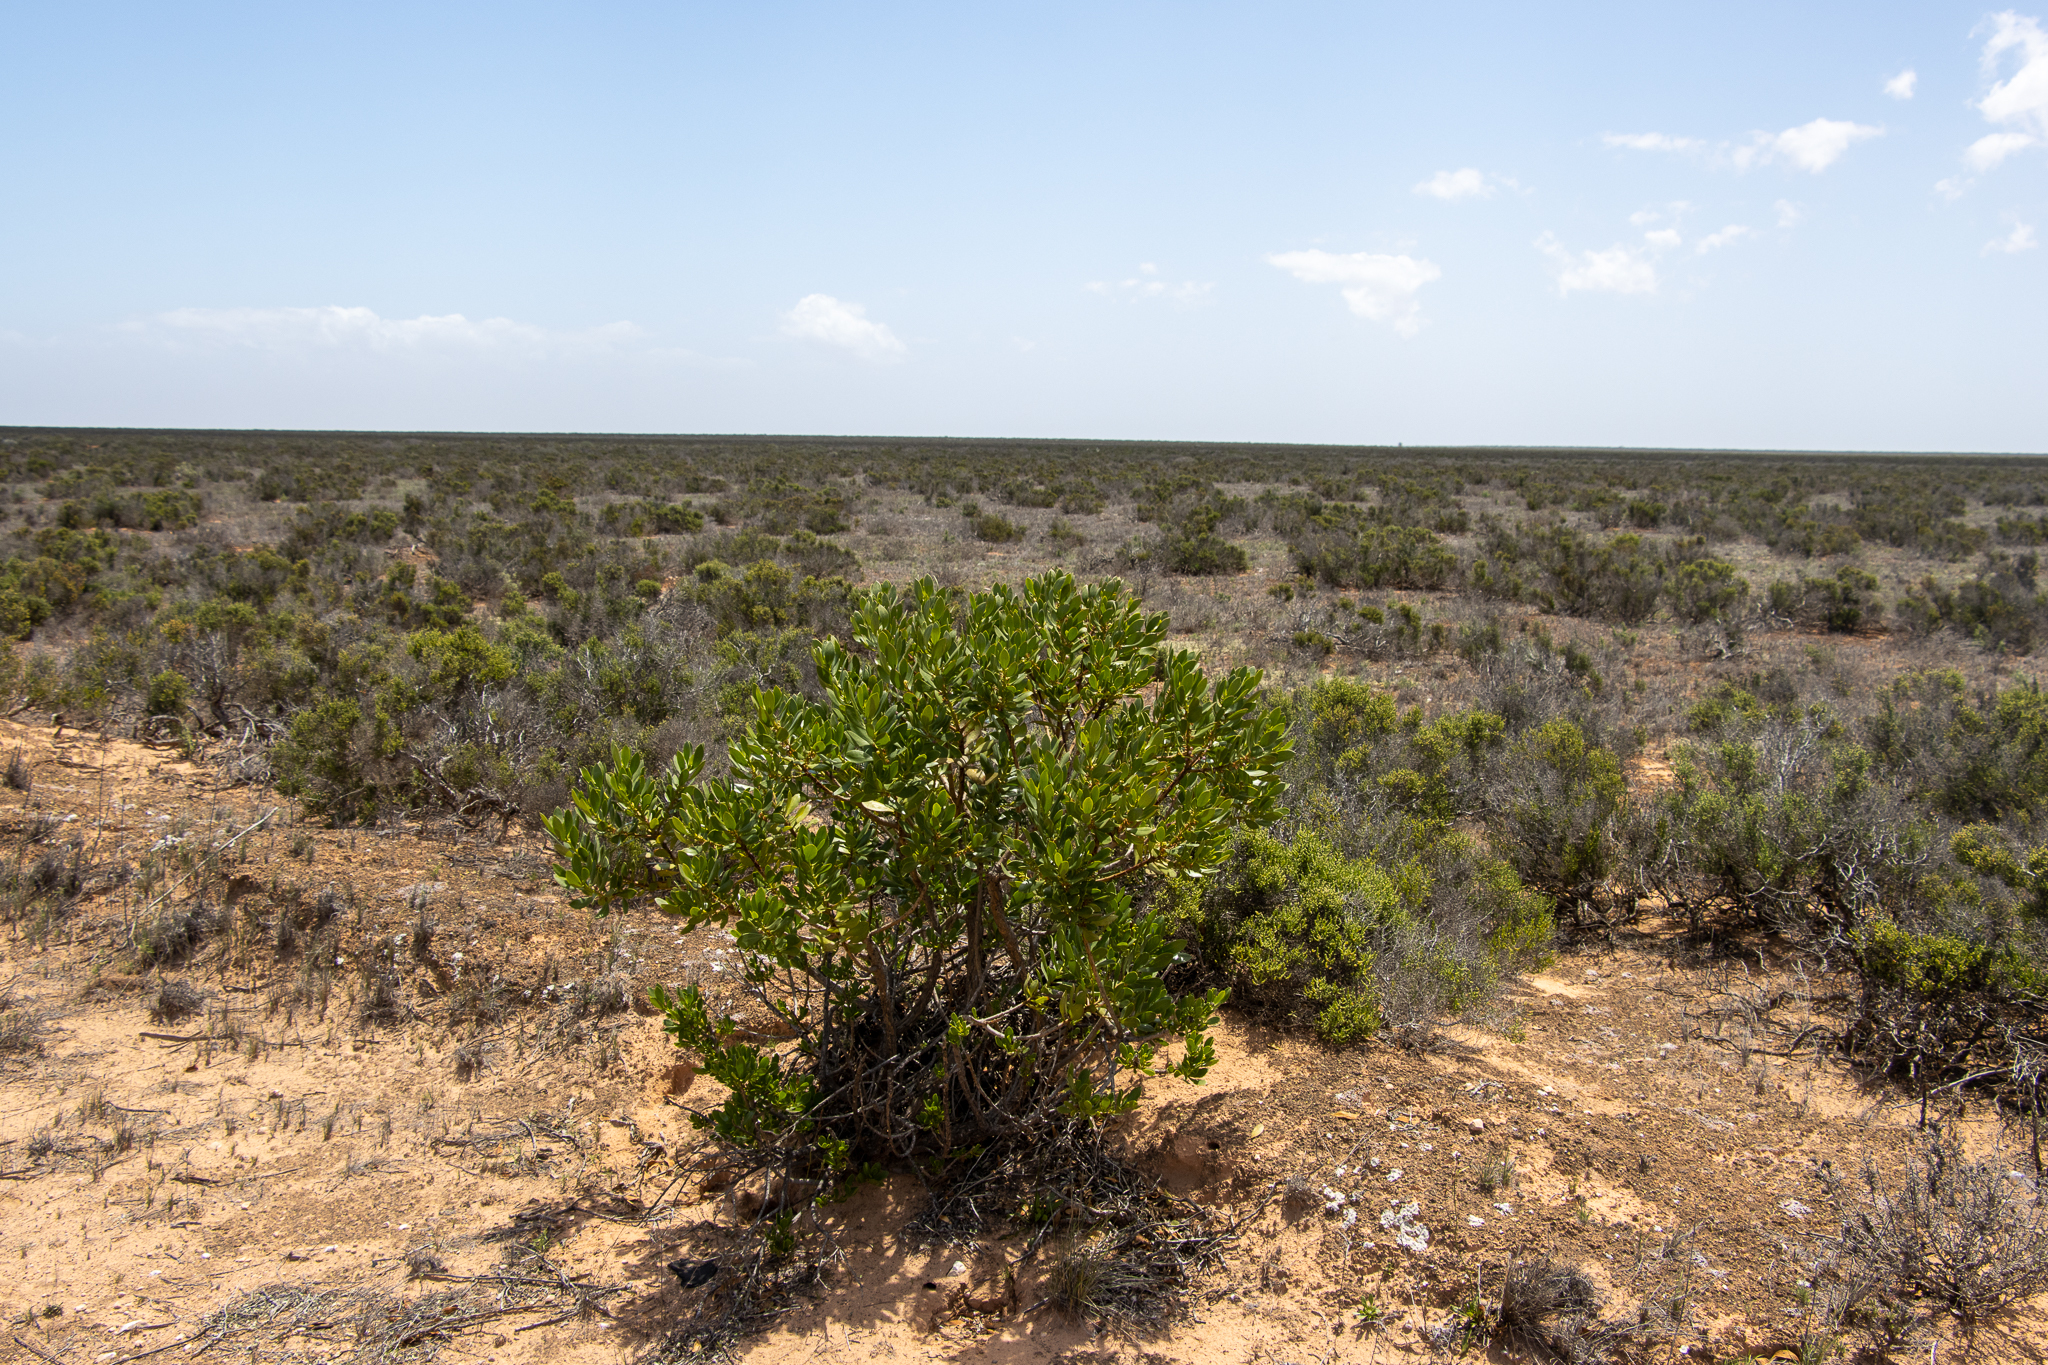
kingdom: Plantae
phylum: Tracheophyta
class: Magnoliopsida
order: Lamiales
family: Scrophulariaceae
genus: Myoporum
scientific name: Myoporum insulare
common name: Common boobialla
